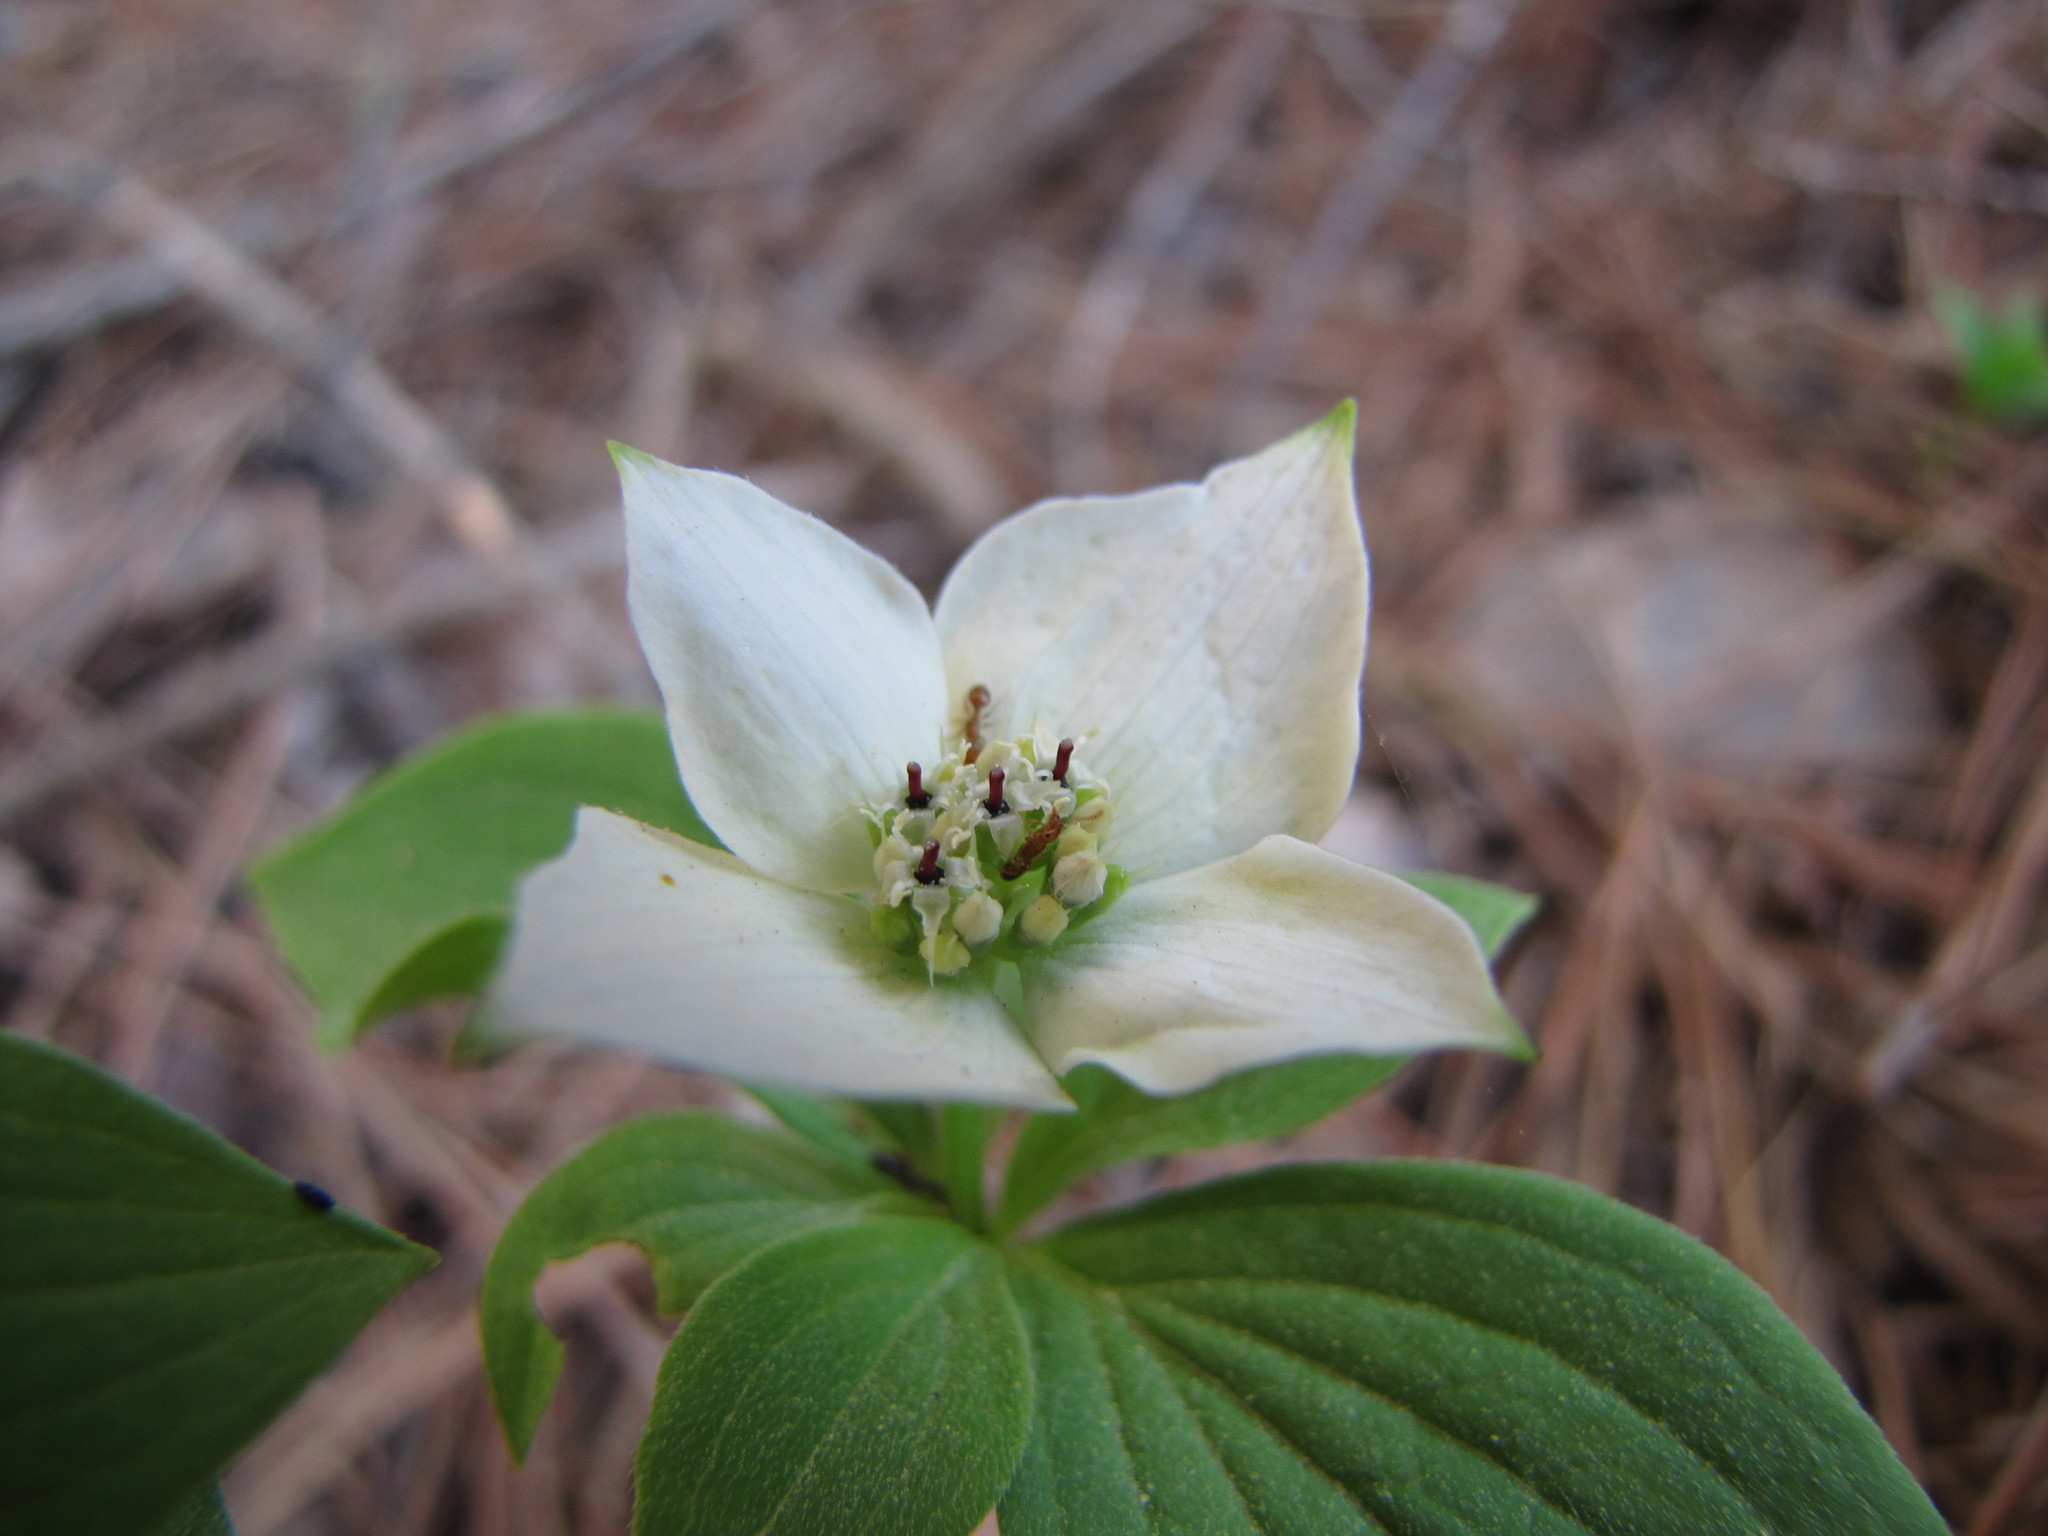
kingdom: Plantae
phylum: Tracheophyta
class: Magnoliopsida
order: Cornales
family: Cornaceae
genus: Cornus
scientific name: Cornus canadensis
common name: Creeping dogwood
